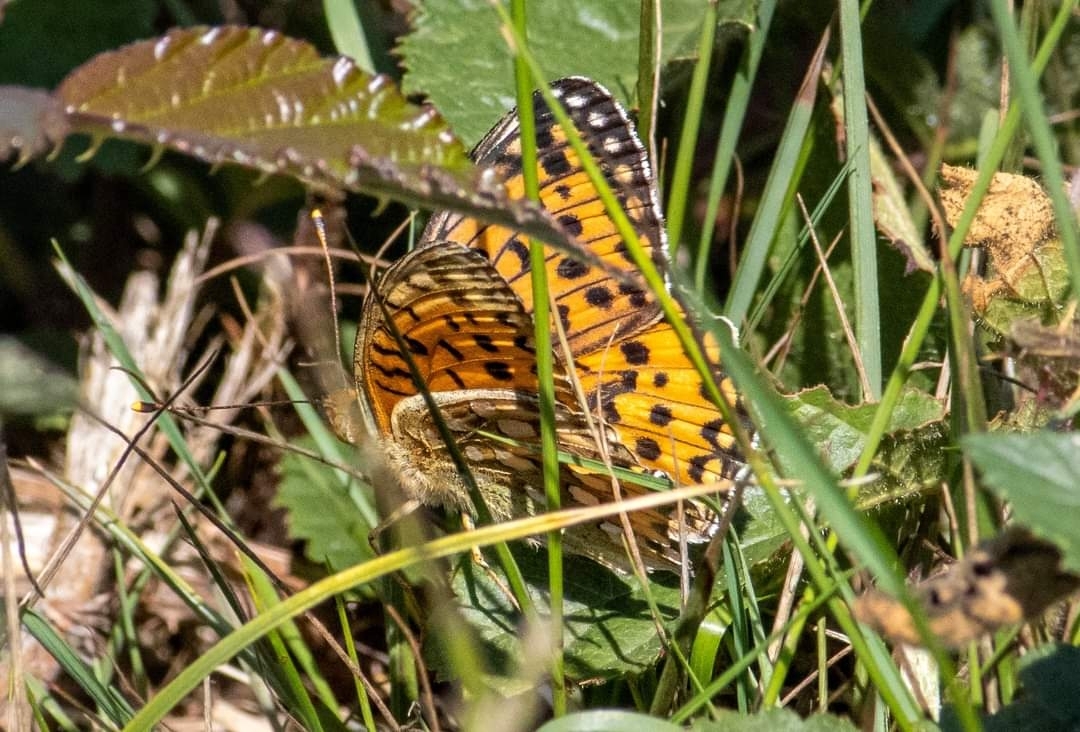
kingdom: Animalia
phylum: Arthropoda
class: Insecta
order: Lepidoptera
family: Nymphalidae
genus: Speyeria
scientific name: Speyeria aglaja
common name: Dark green fritillary
